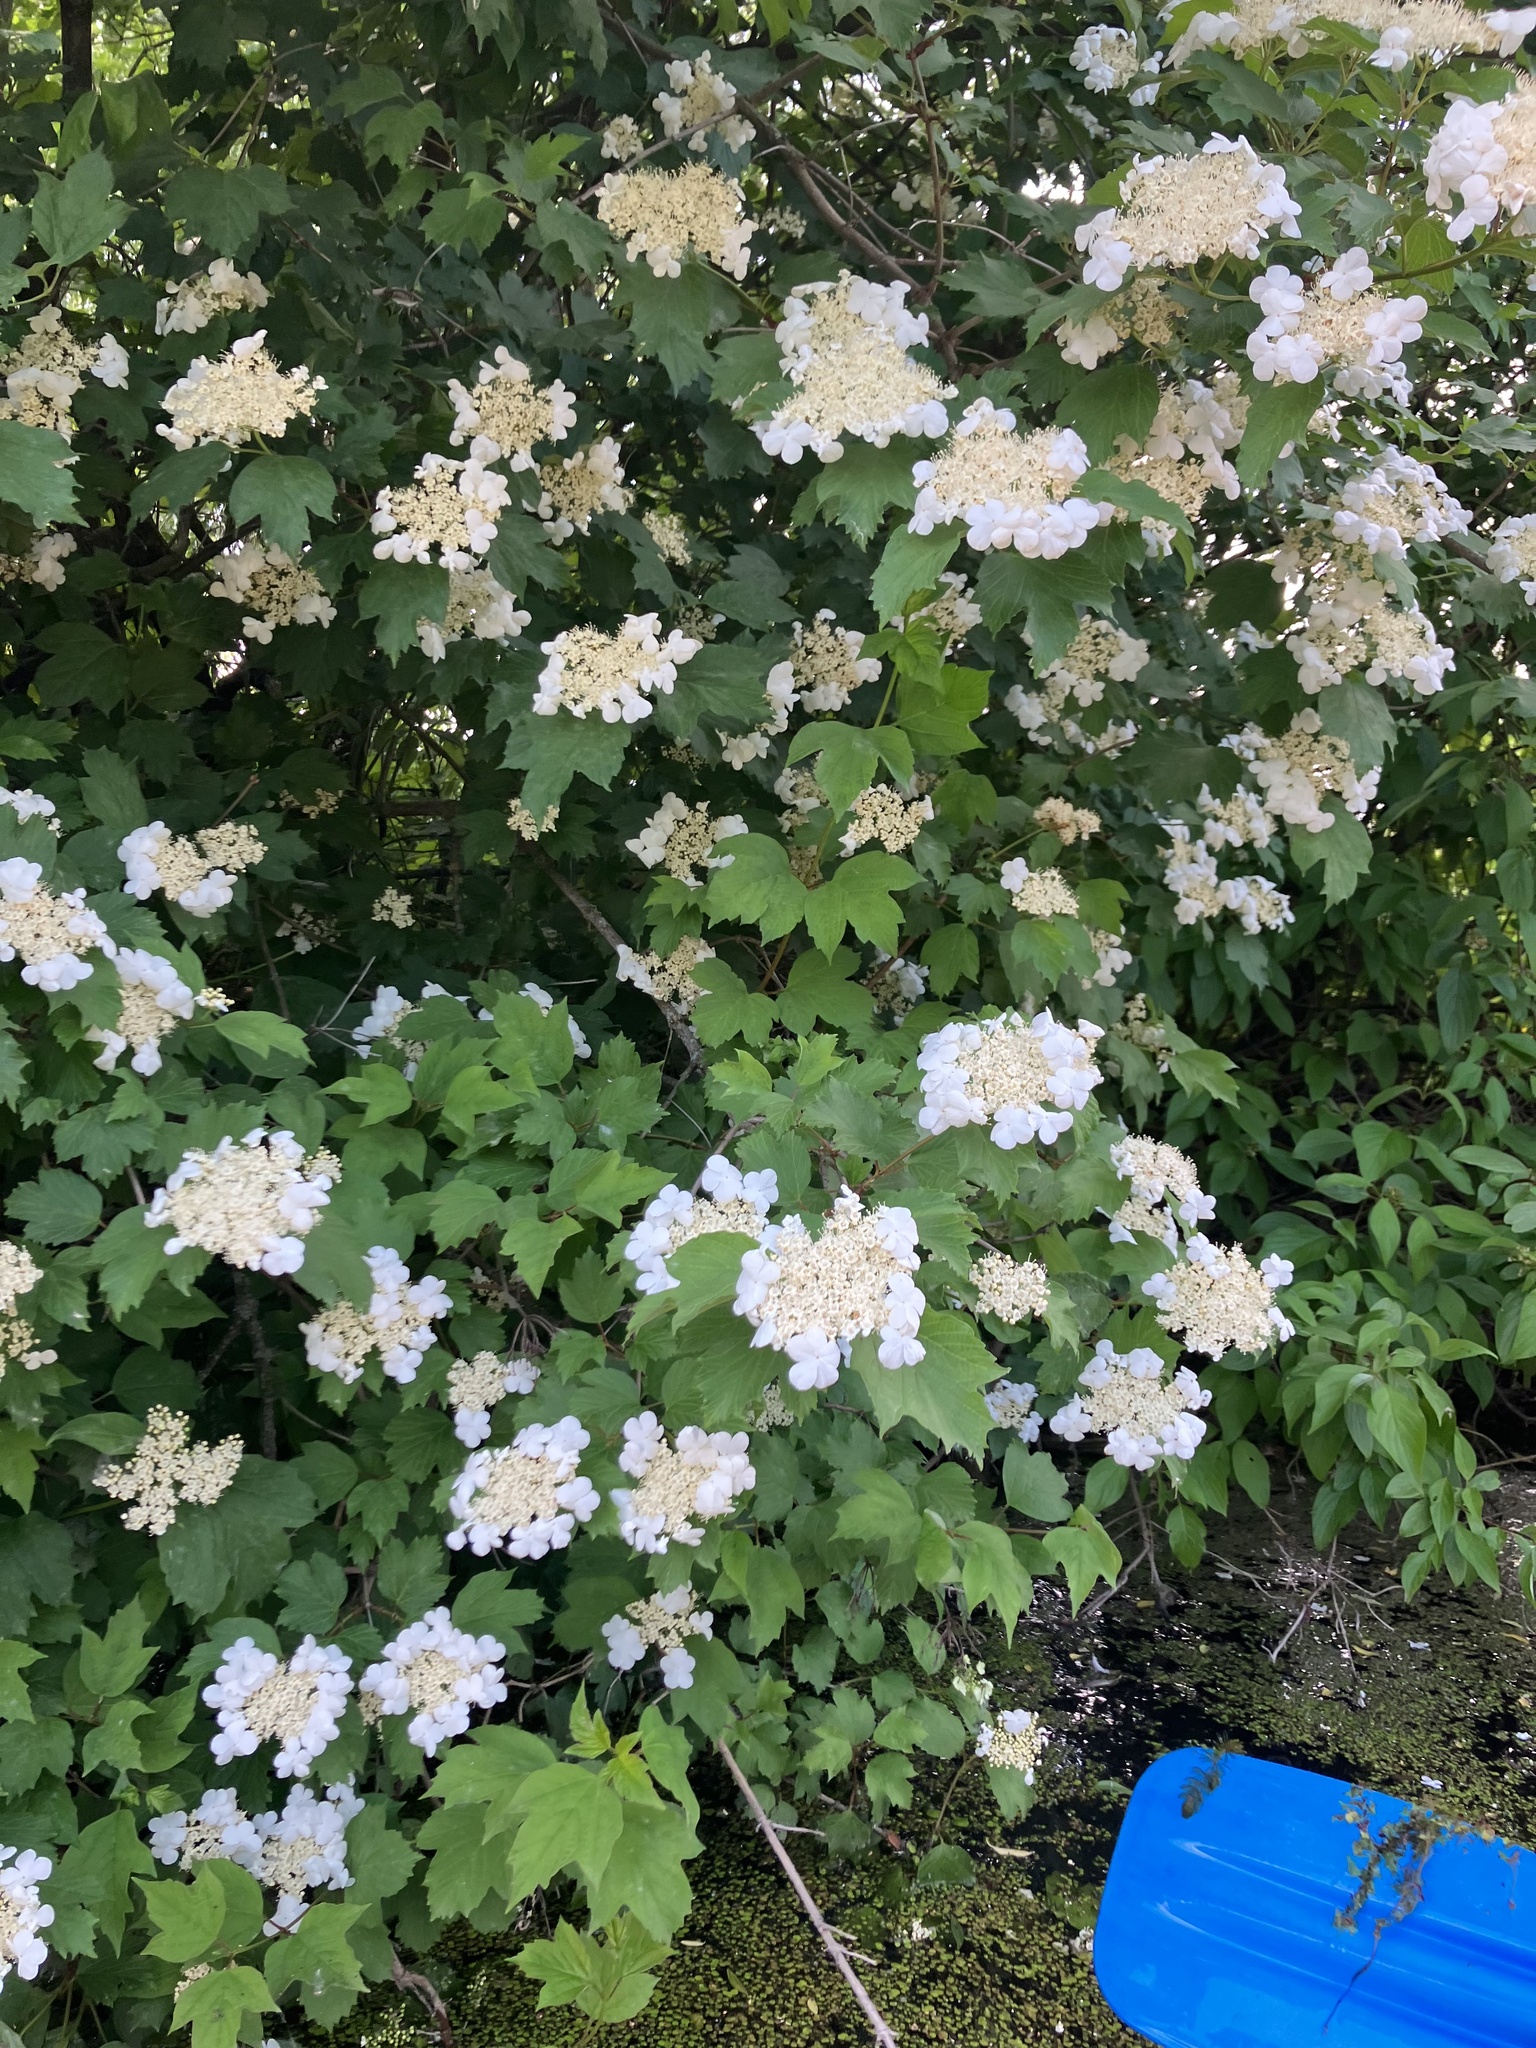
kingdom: Plantae
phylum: Tracheophyta
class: Magnoliopsida
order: Dipsacales
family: Viburnaceae
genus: Viburnum
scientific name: Viburnum opulus
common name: Guelder-rose
